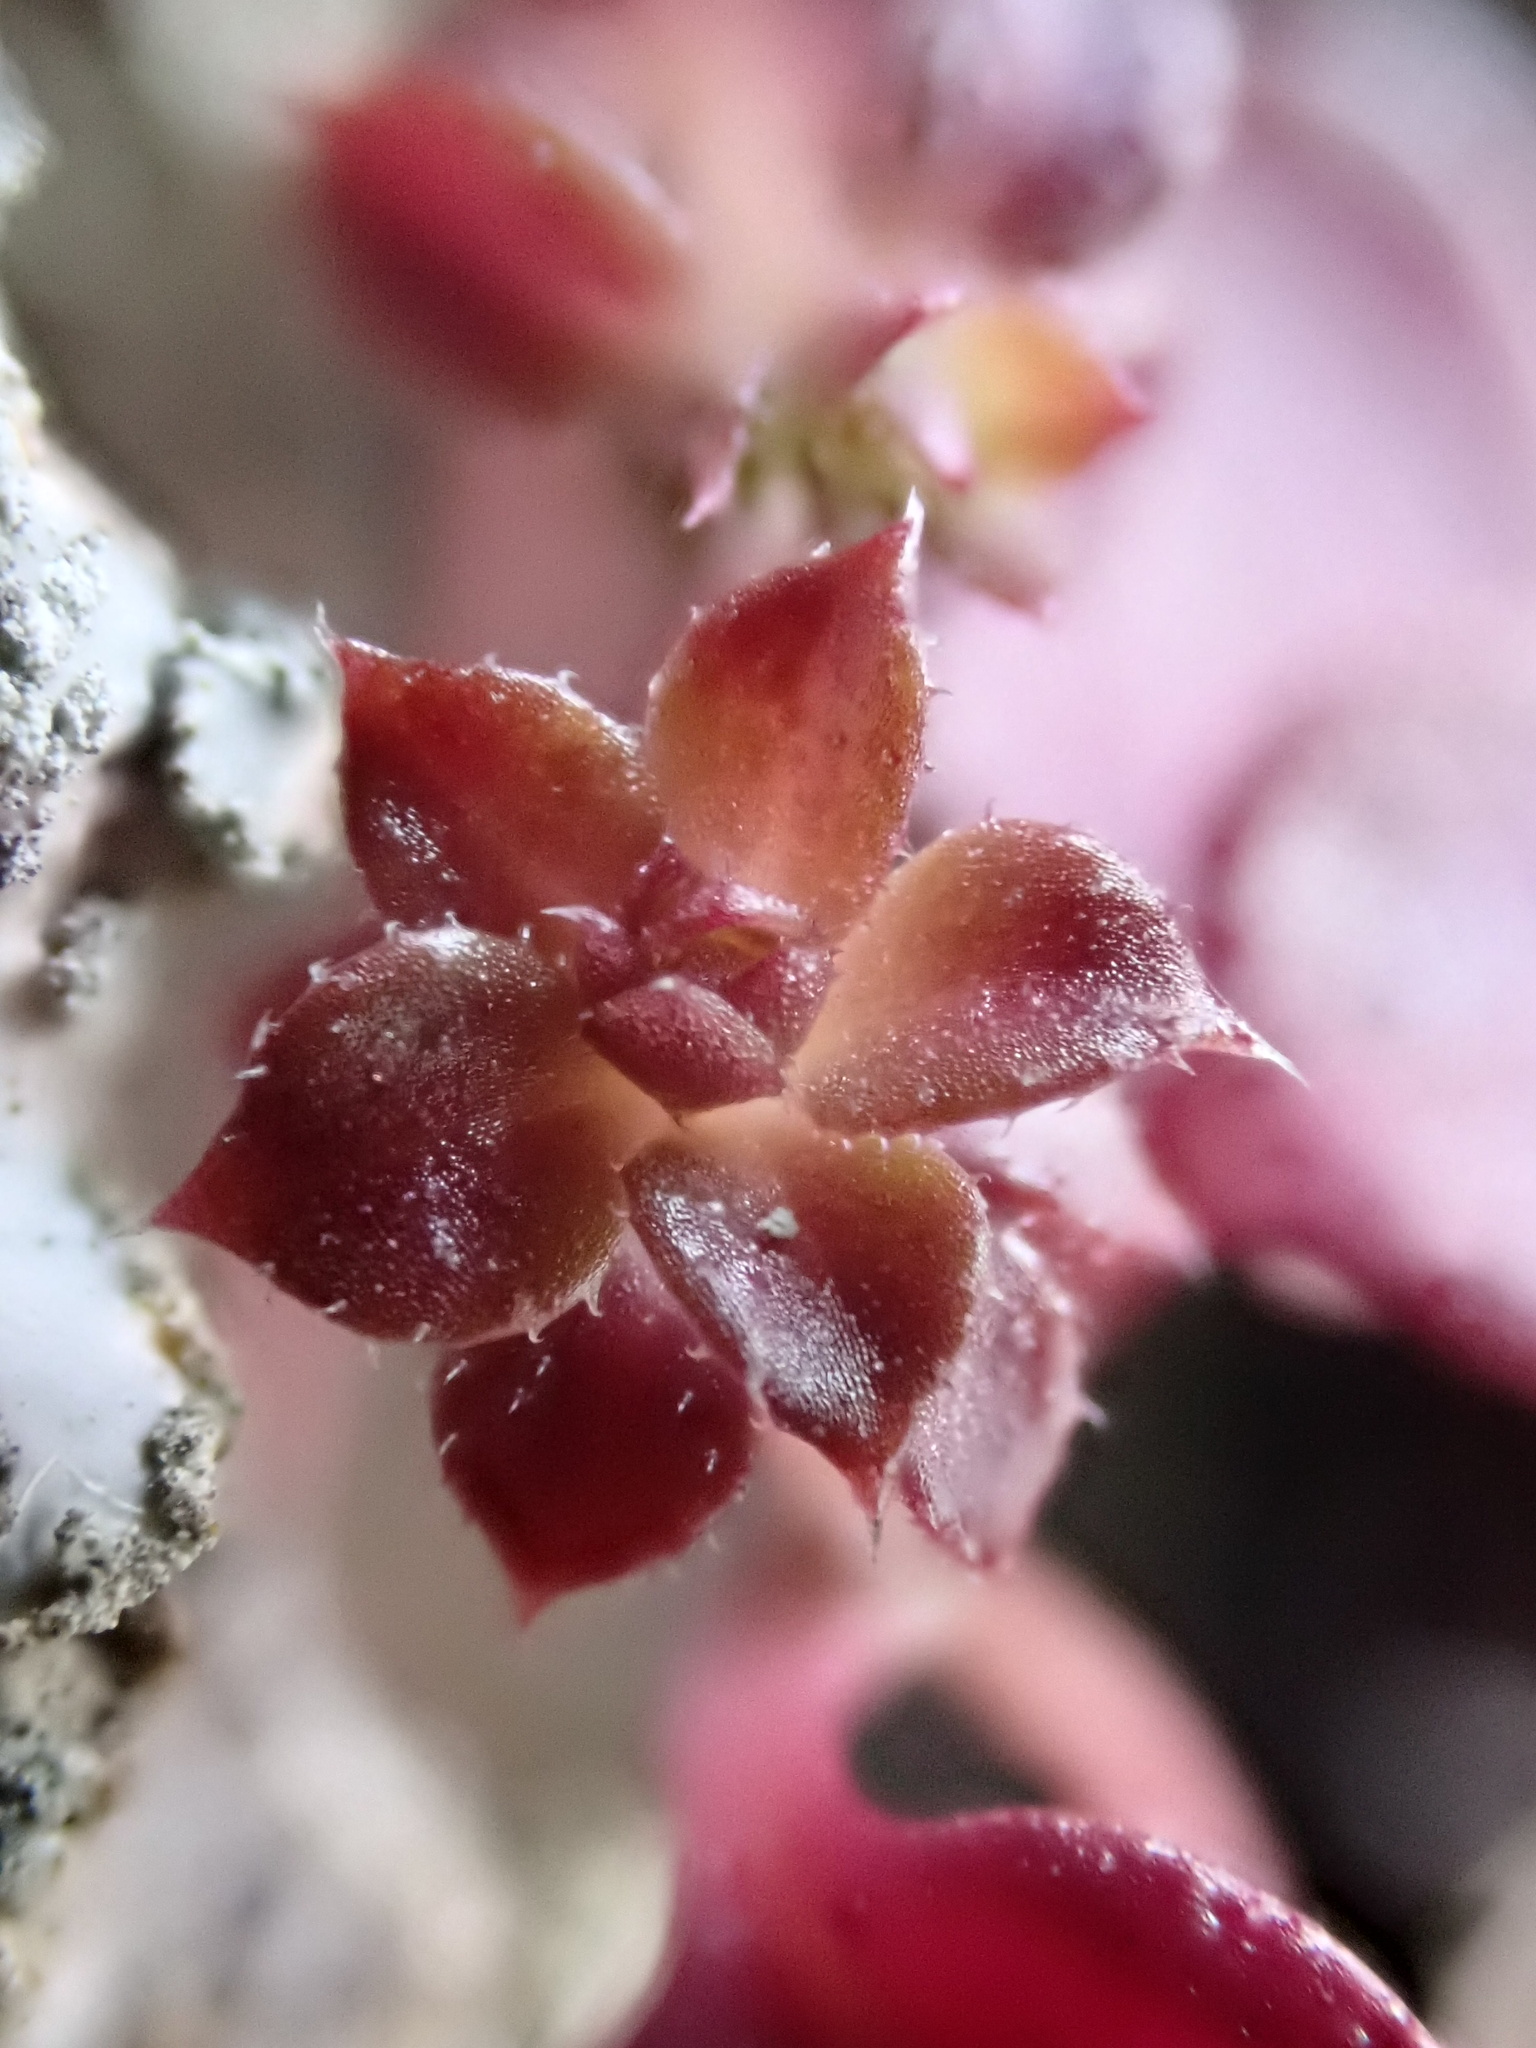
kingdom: Plantae
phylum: Tracheophyta
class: Magnoliopsida
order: Gentianales
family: Rubiaceae
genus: Galium
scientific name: Galium aparine
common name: Cleavers
